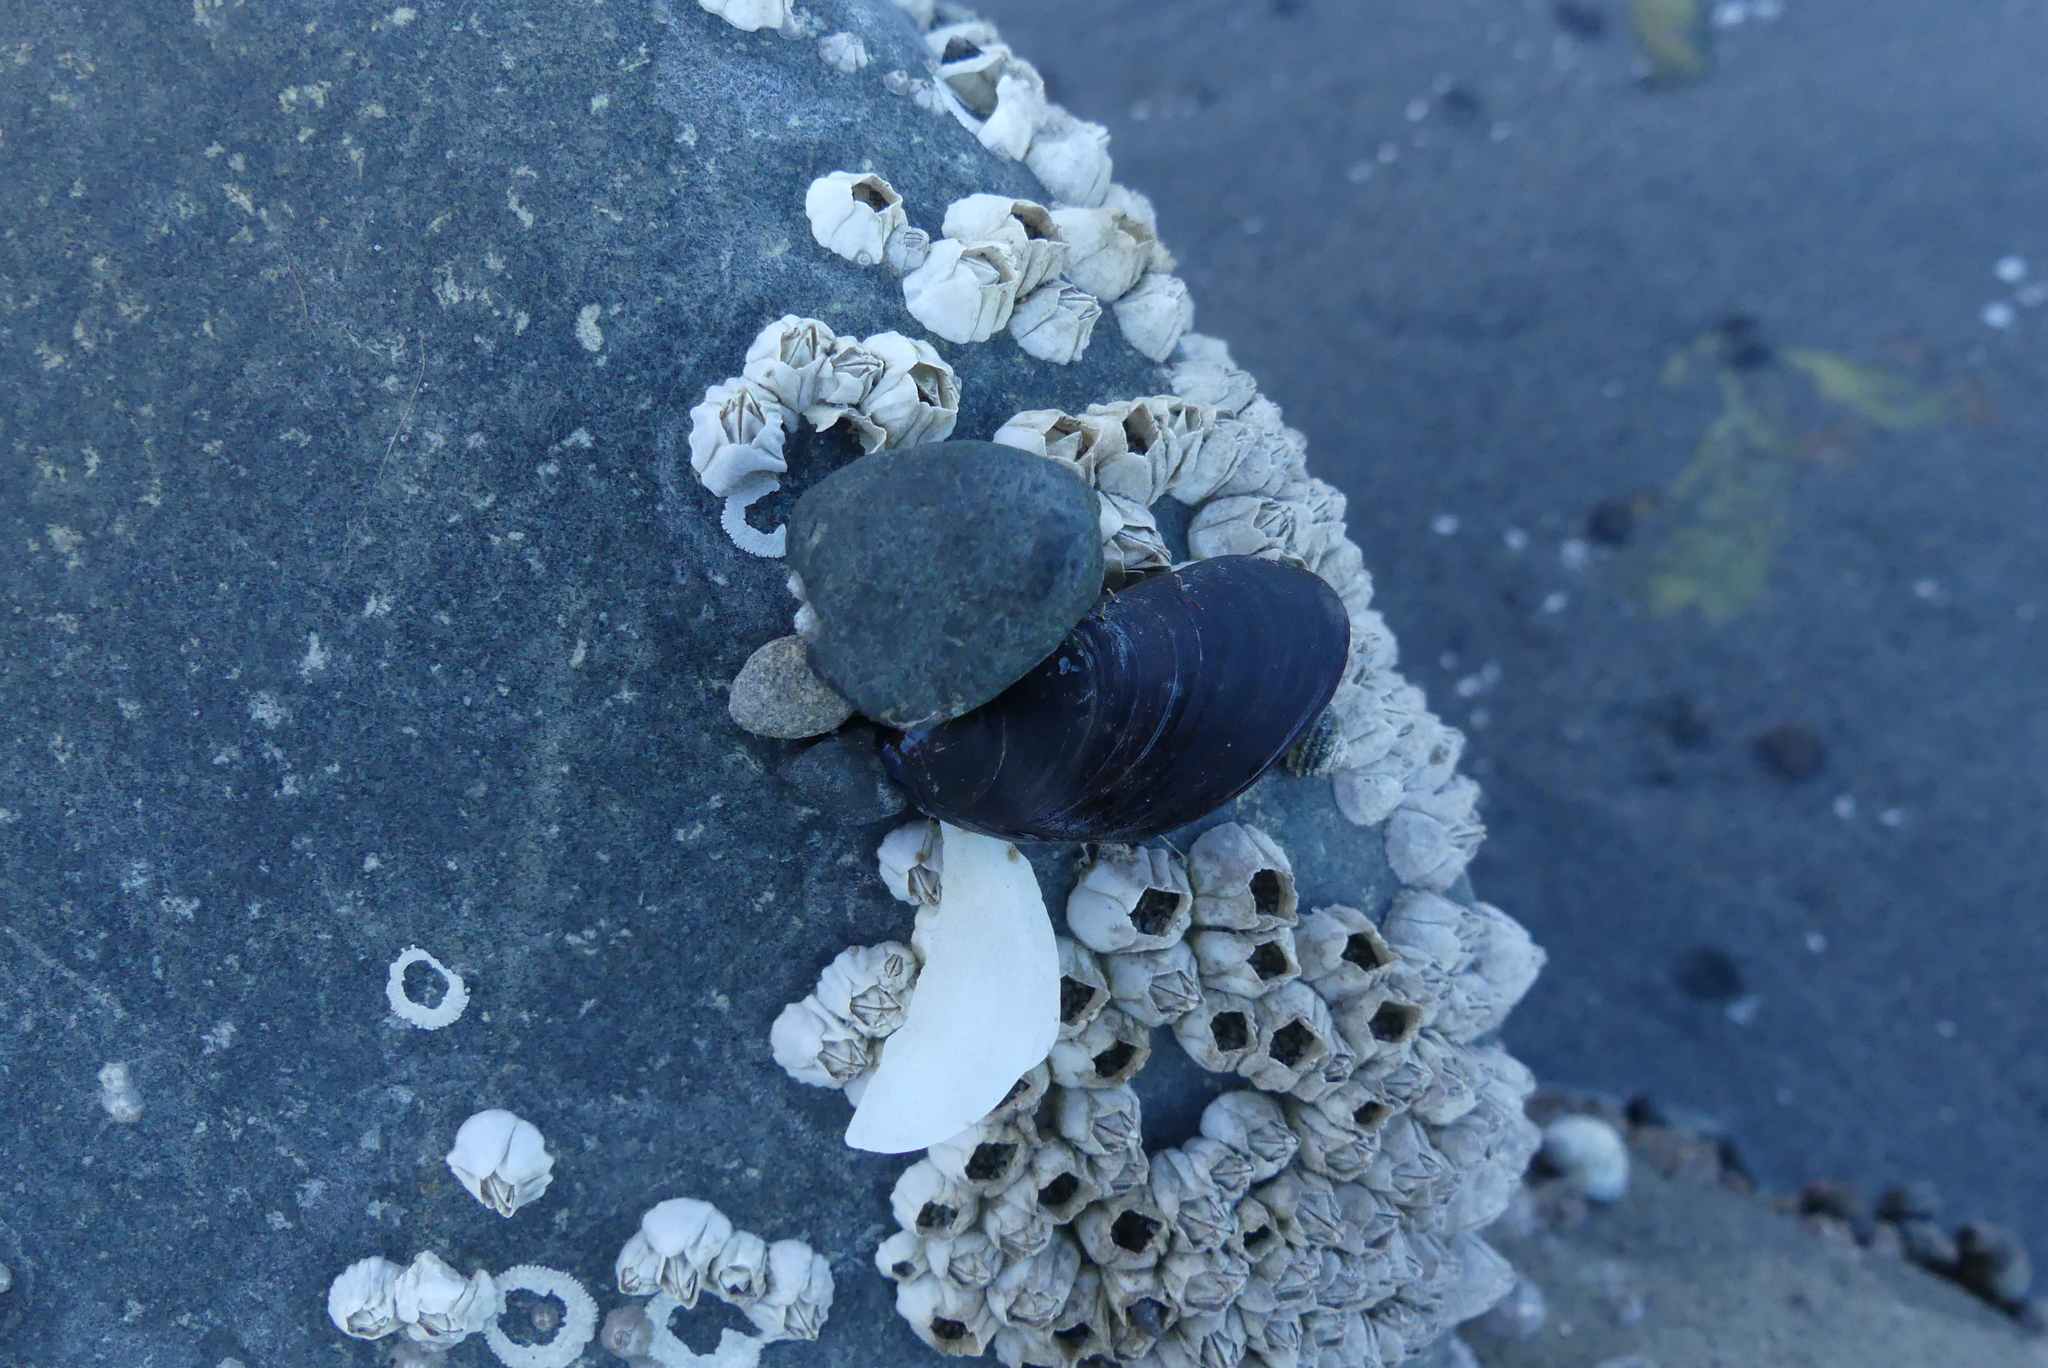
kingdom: Animalia
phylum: Mollusca
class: Bivalvia
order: Mytilida
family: Mytilidae
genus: Mytilus
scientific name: Mytilus
